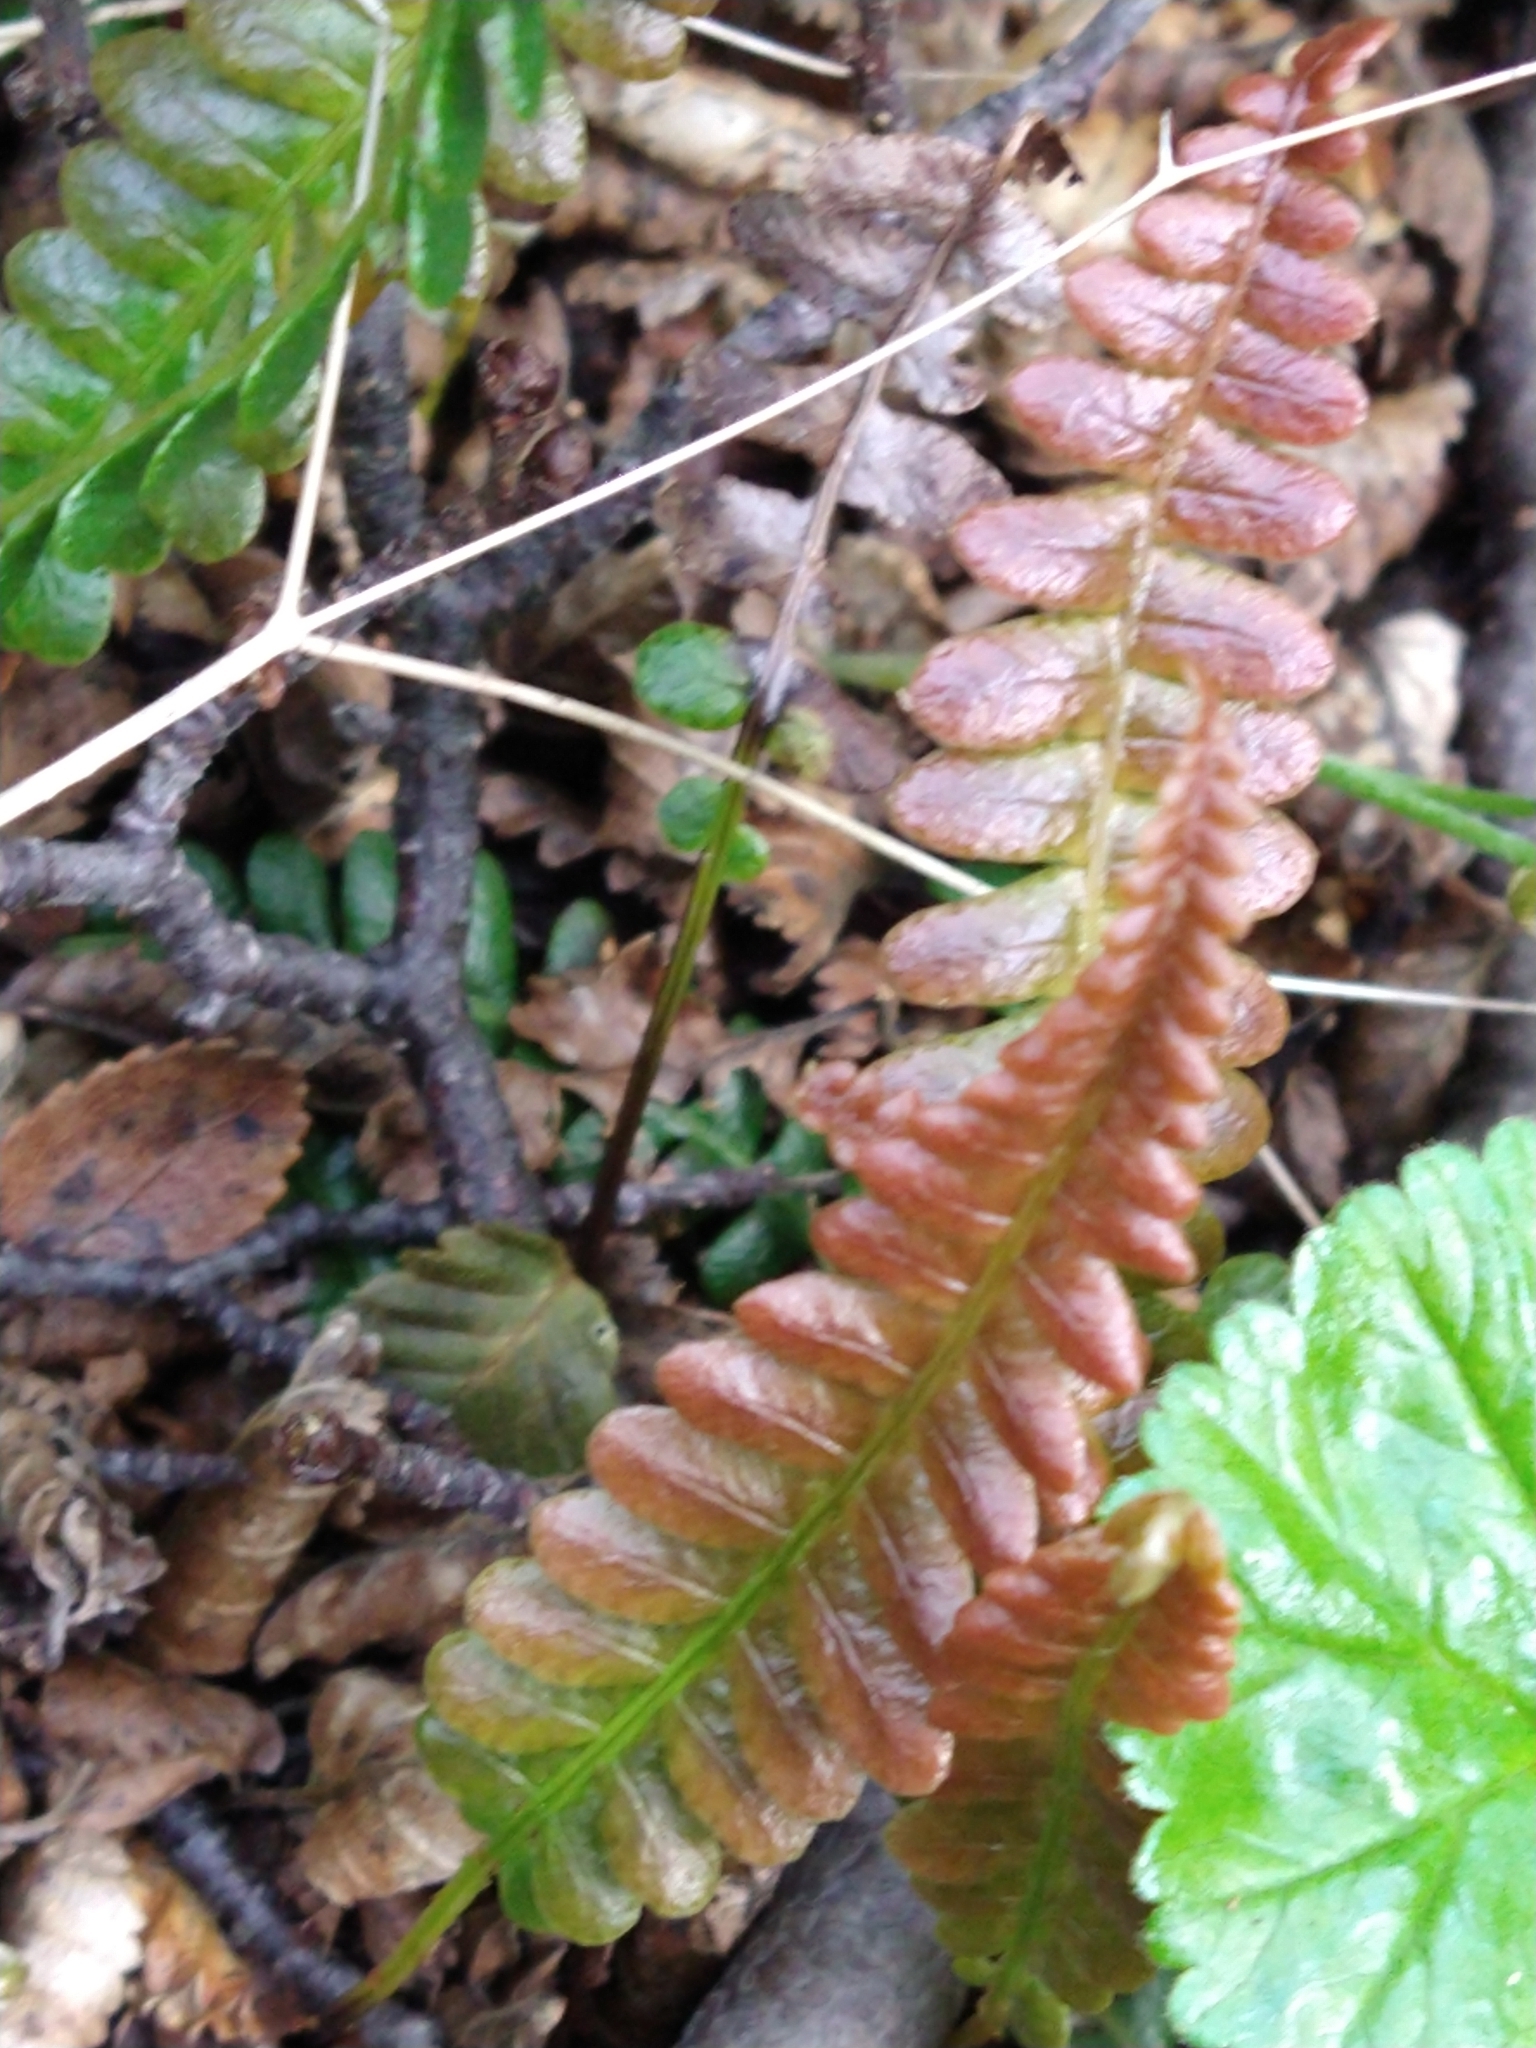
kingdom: Plantae
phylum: Tracheophyta
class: Polypodiopsida
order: Polypodiales
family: Blechnaceae
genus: Austroblechnum
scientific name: Austroblechnum penna-marina
